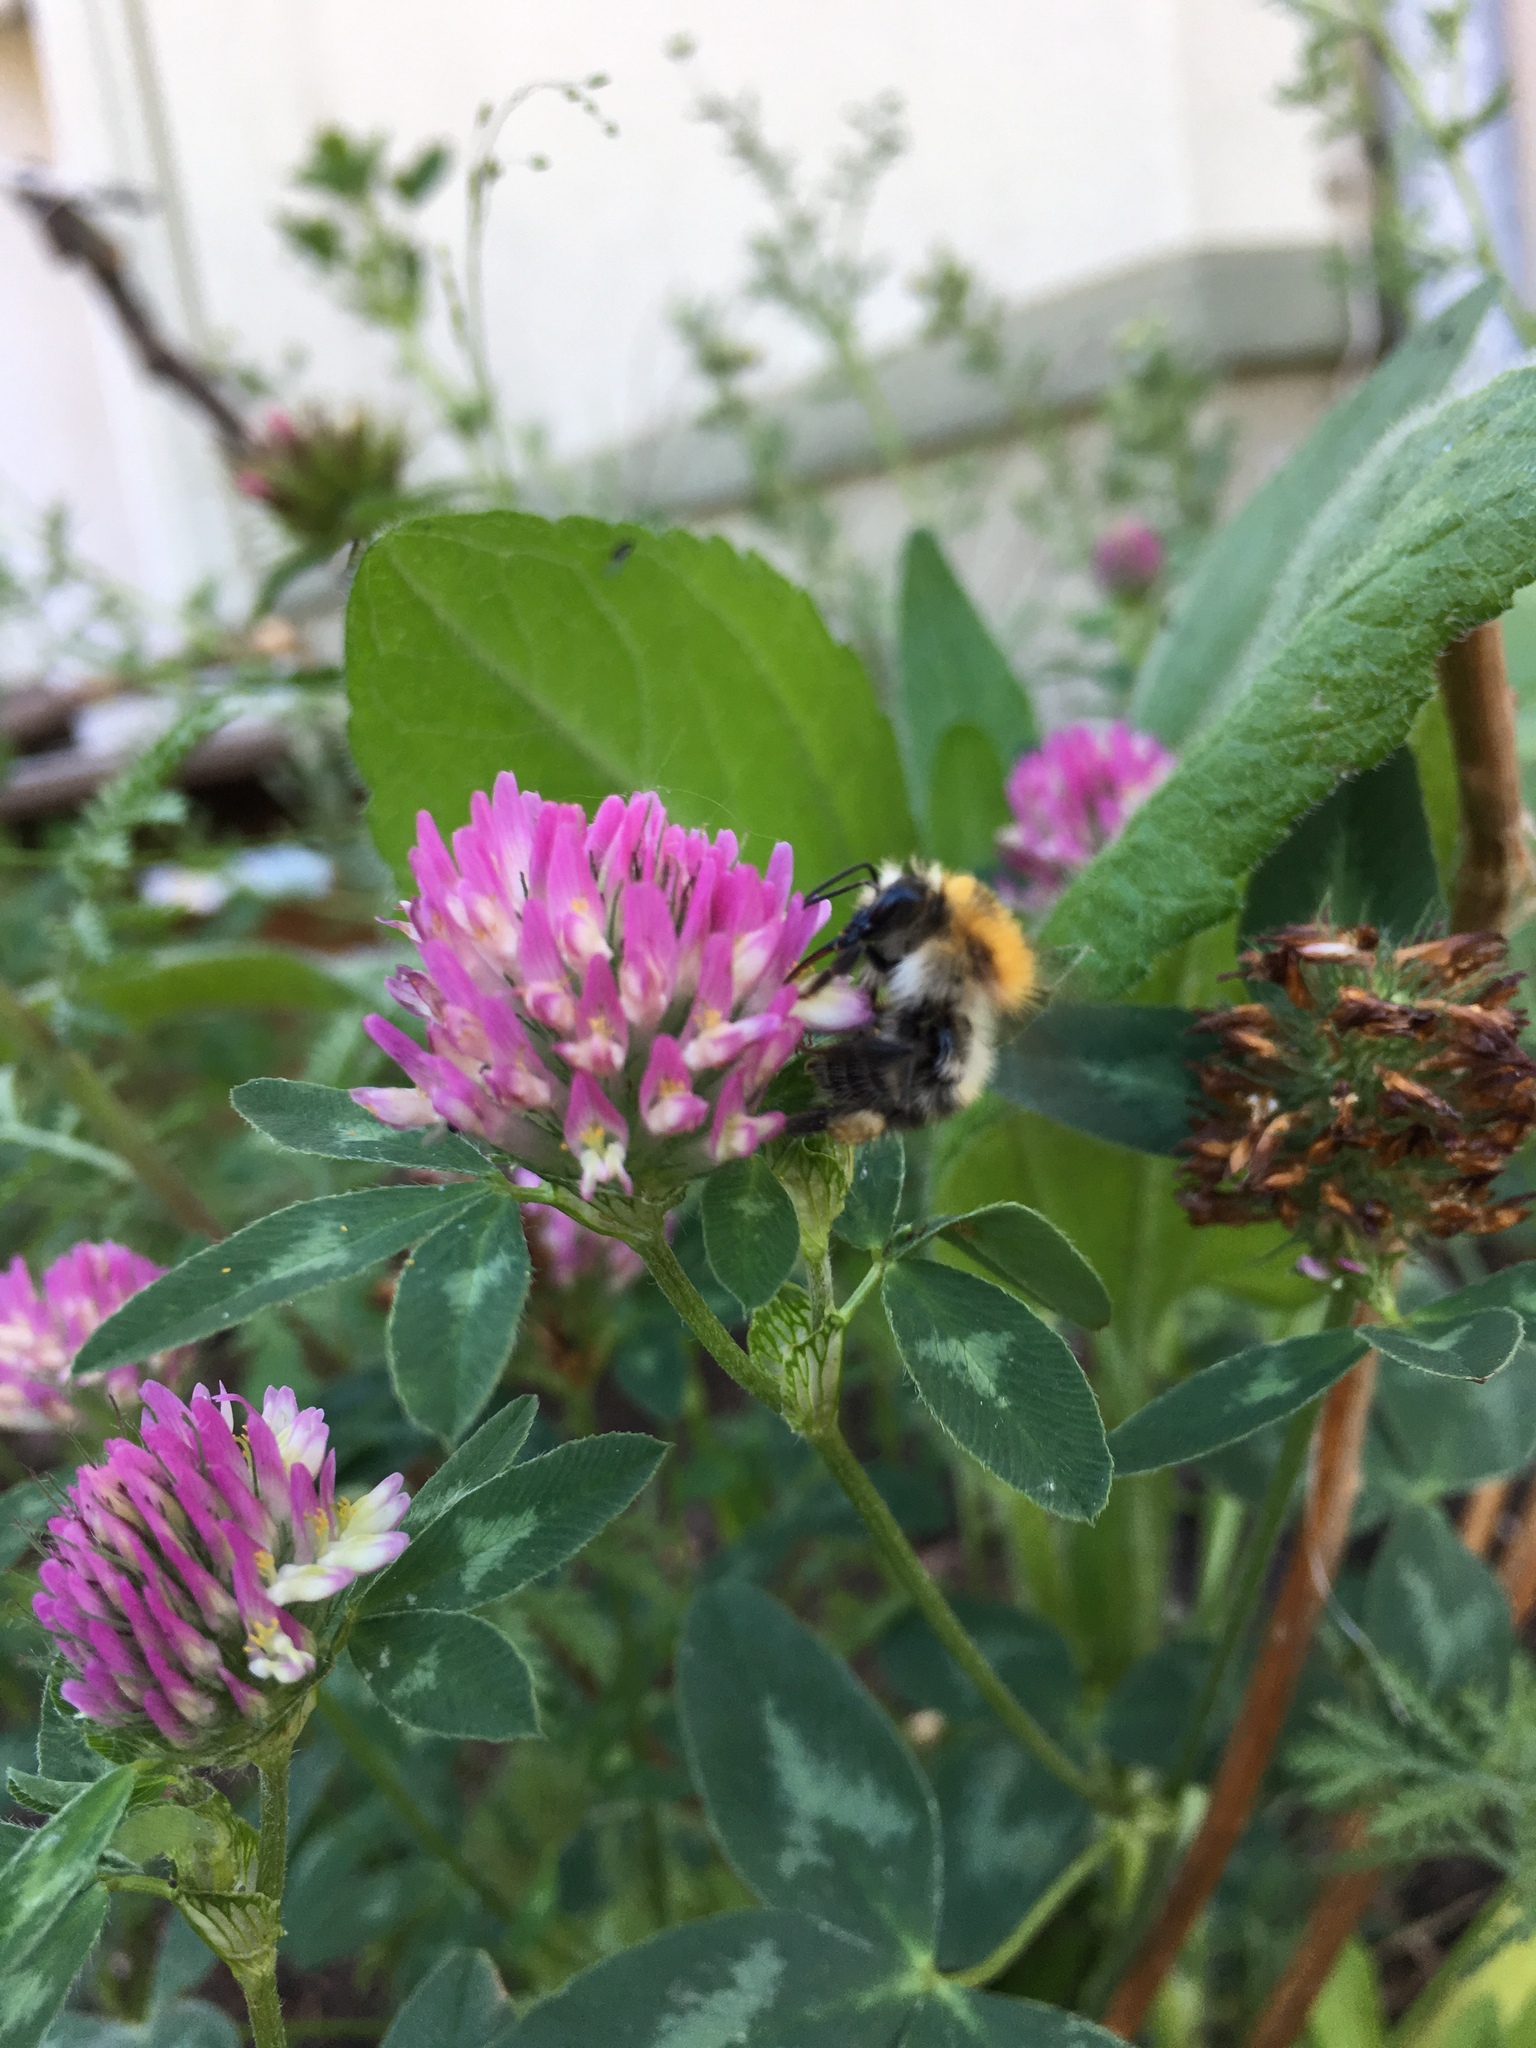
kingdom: Animalia
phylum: Arthropoda
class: Insecta
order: Hymenoptera
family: Apidae
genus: Bombus
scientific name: Bombus pascuorum
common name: Common carder bee
